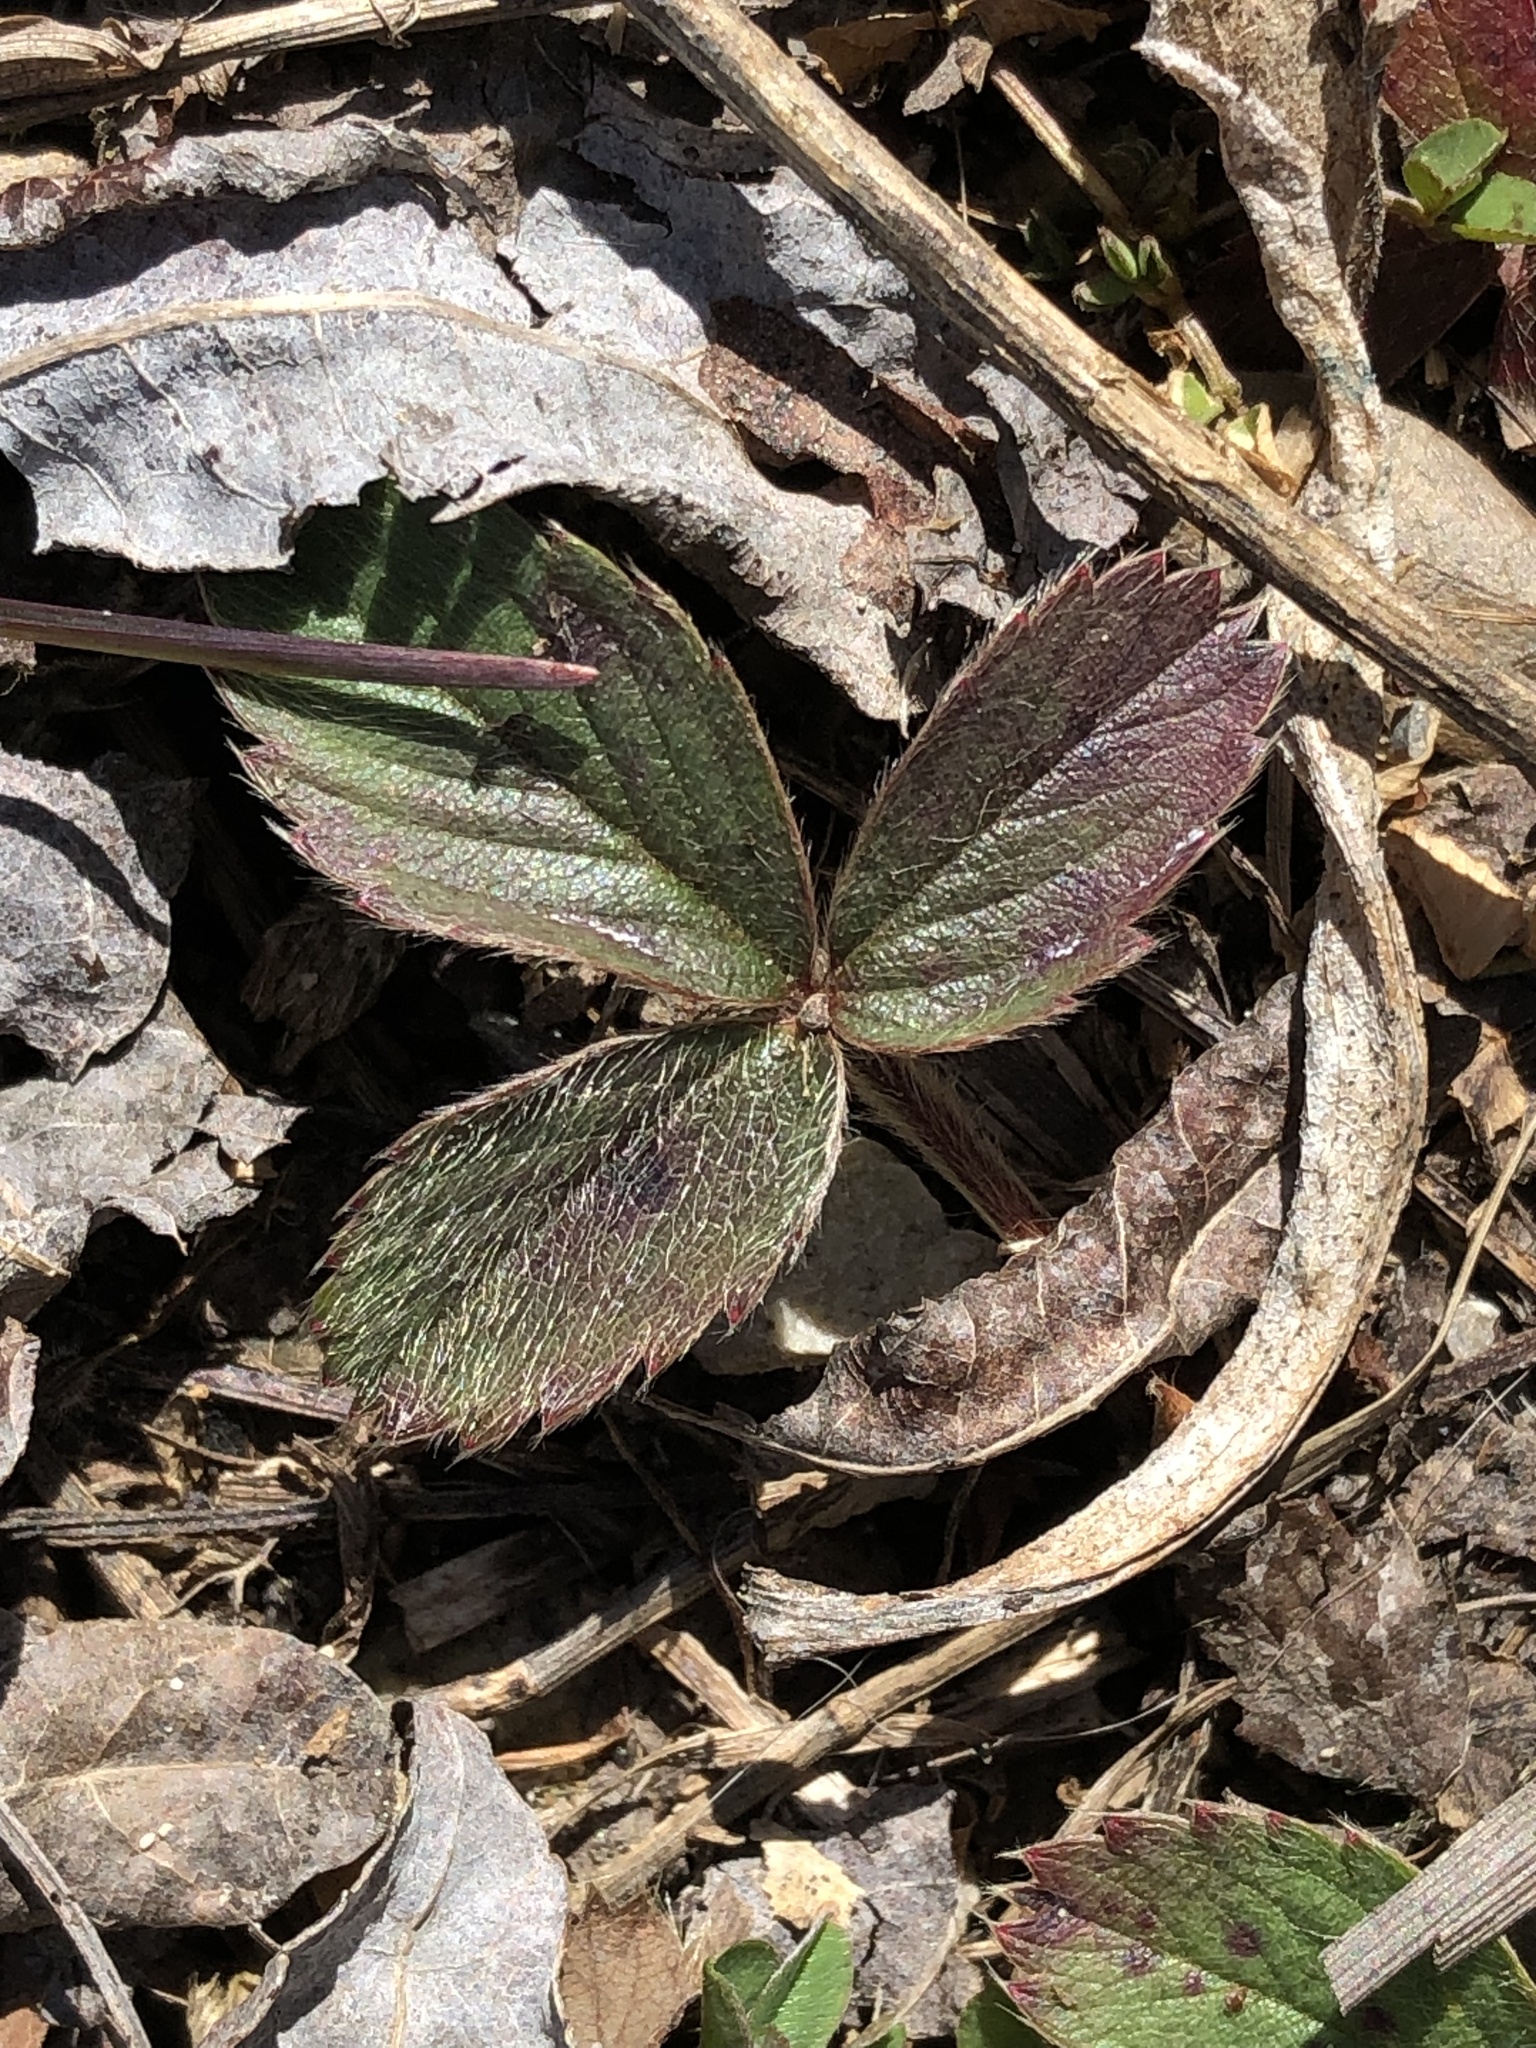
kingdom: Plantae
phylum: Tracheophyta
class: Magnoliopsida
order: Rosales
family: Rosaceae
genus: Fragaria
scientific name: Fragaria virginiana
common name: Thickleaved wild strawberry
